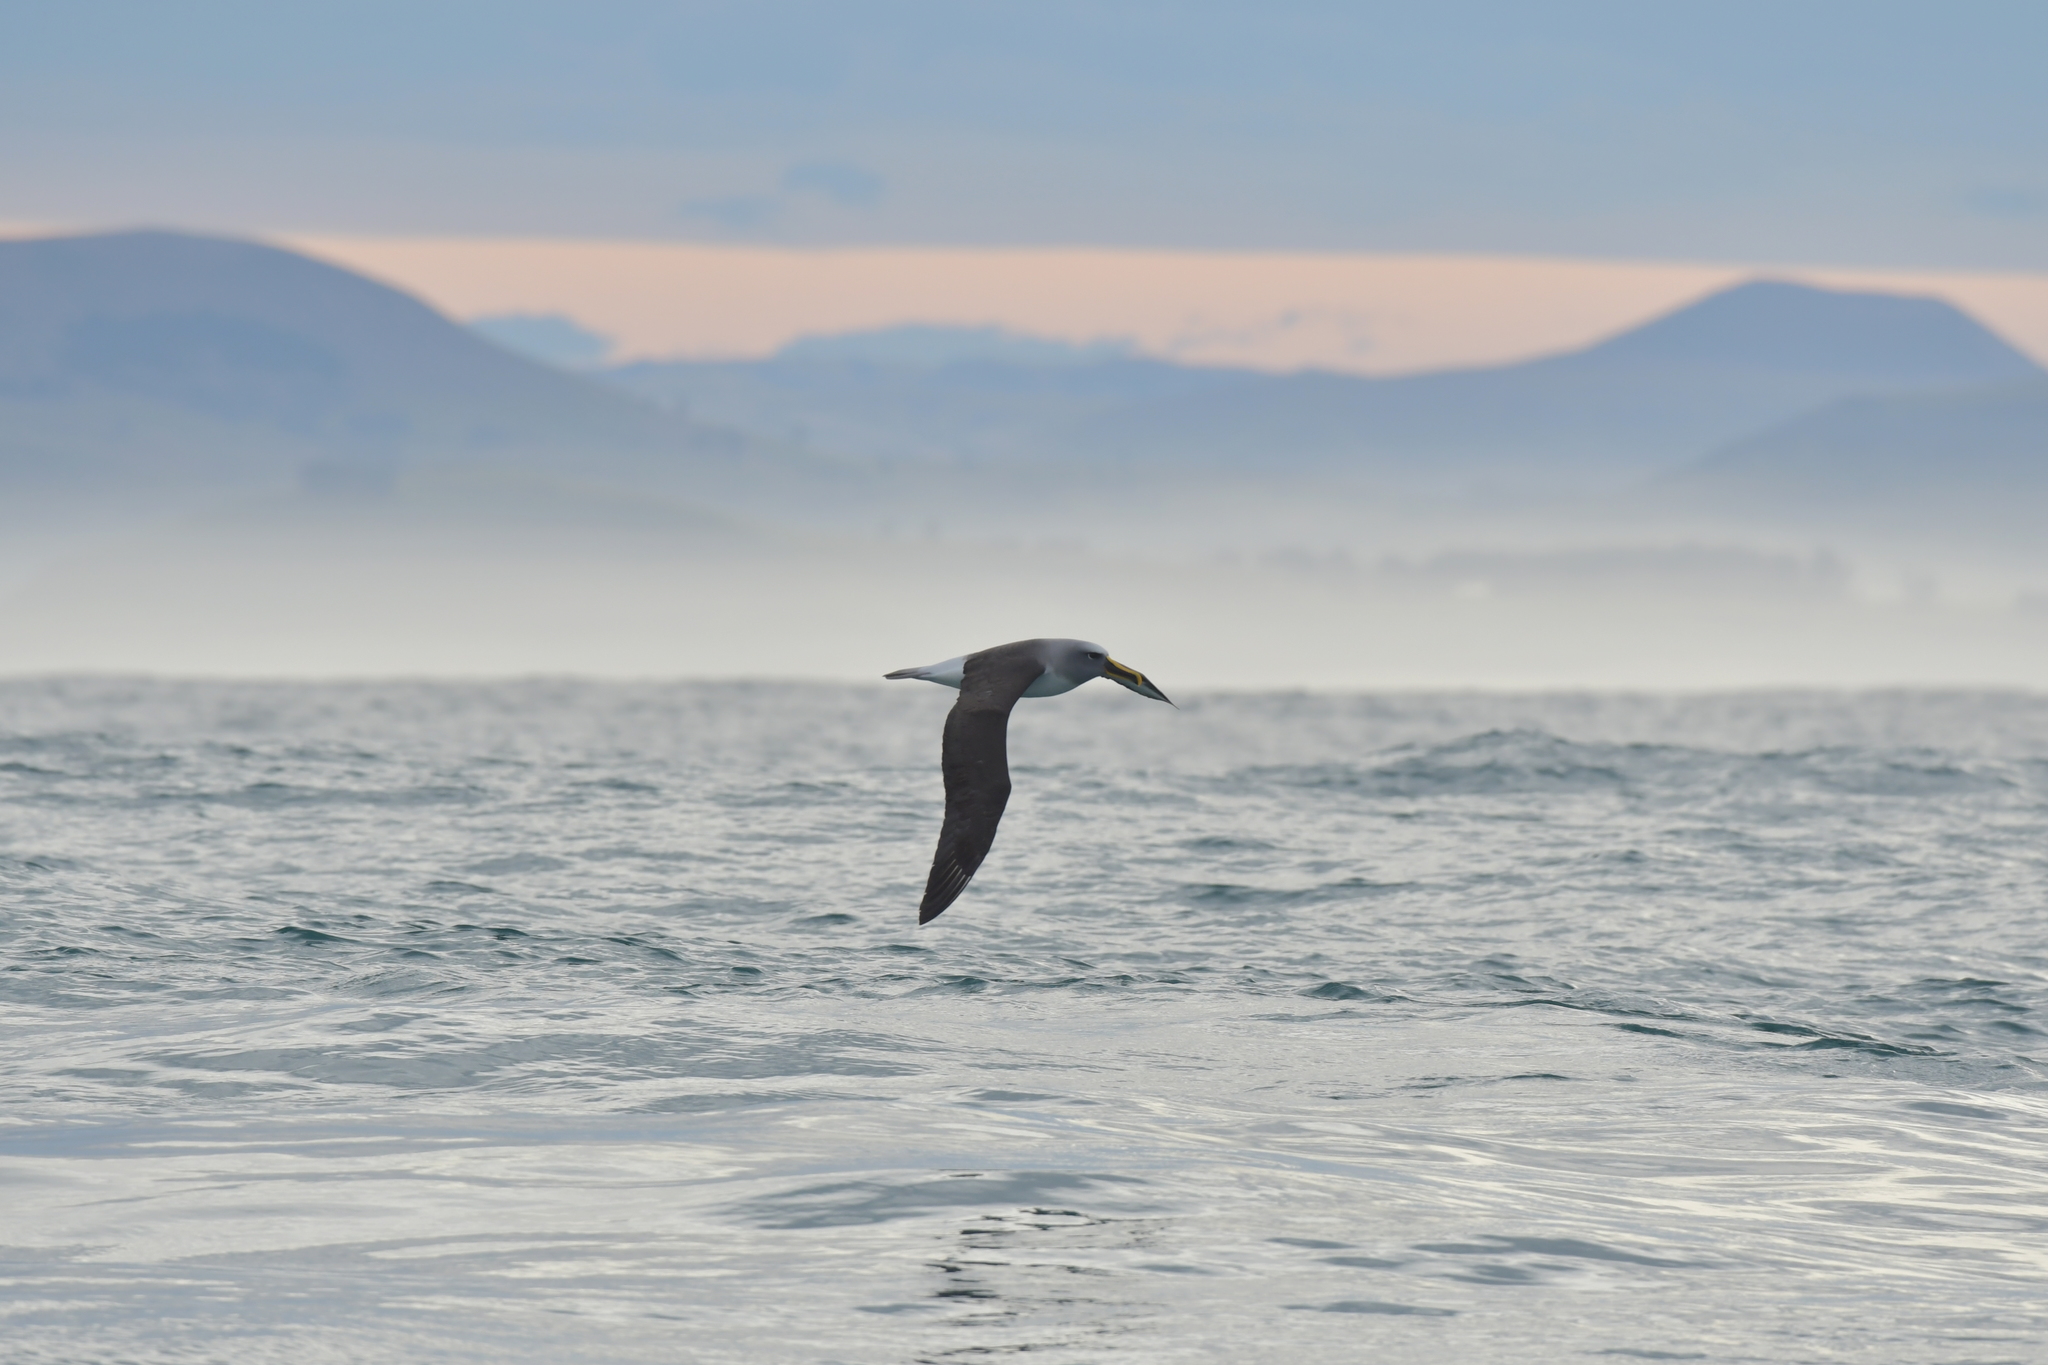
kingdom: Animalia
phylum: Chordata
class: Aves
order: Procellariiformes
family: Diomedeidae
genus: Thalassarche
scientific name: Thalassarche bulleri
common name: Buller's albatross
